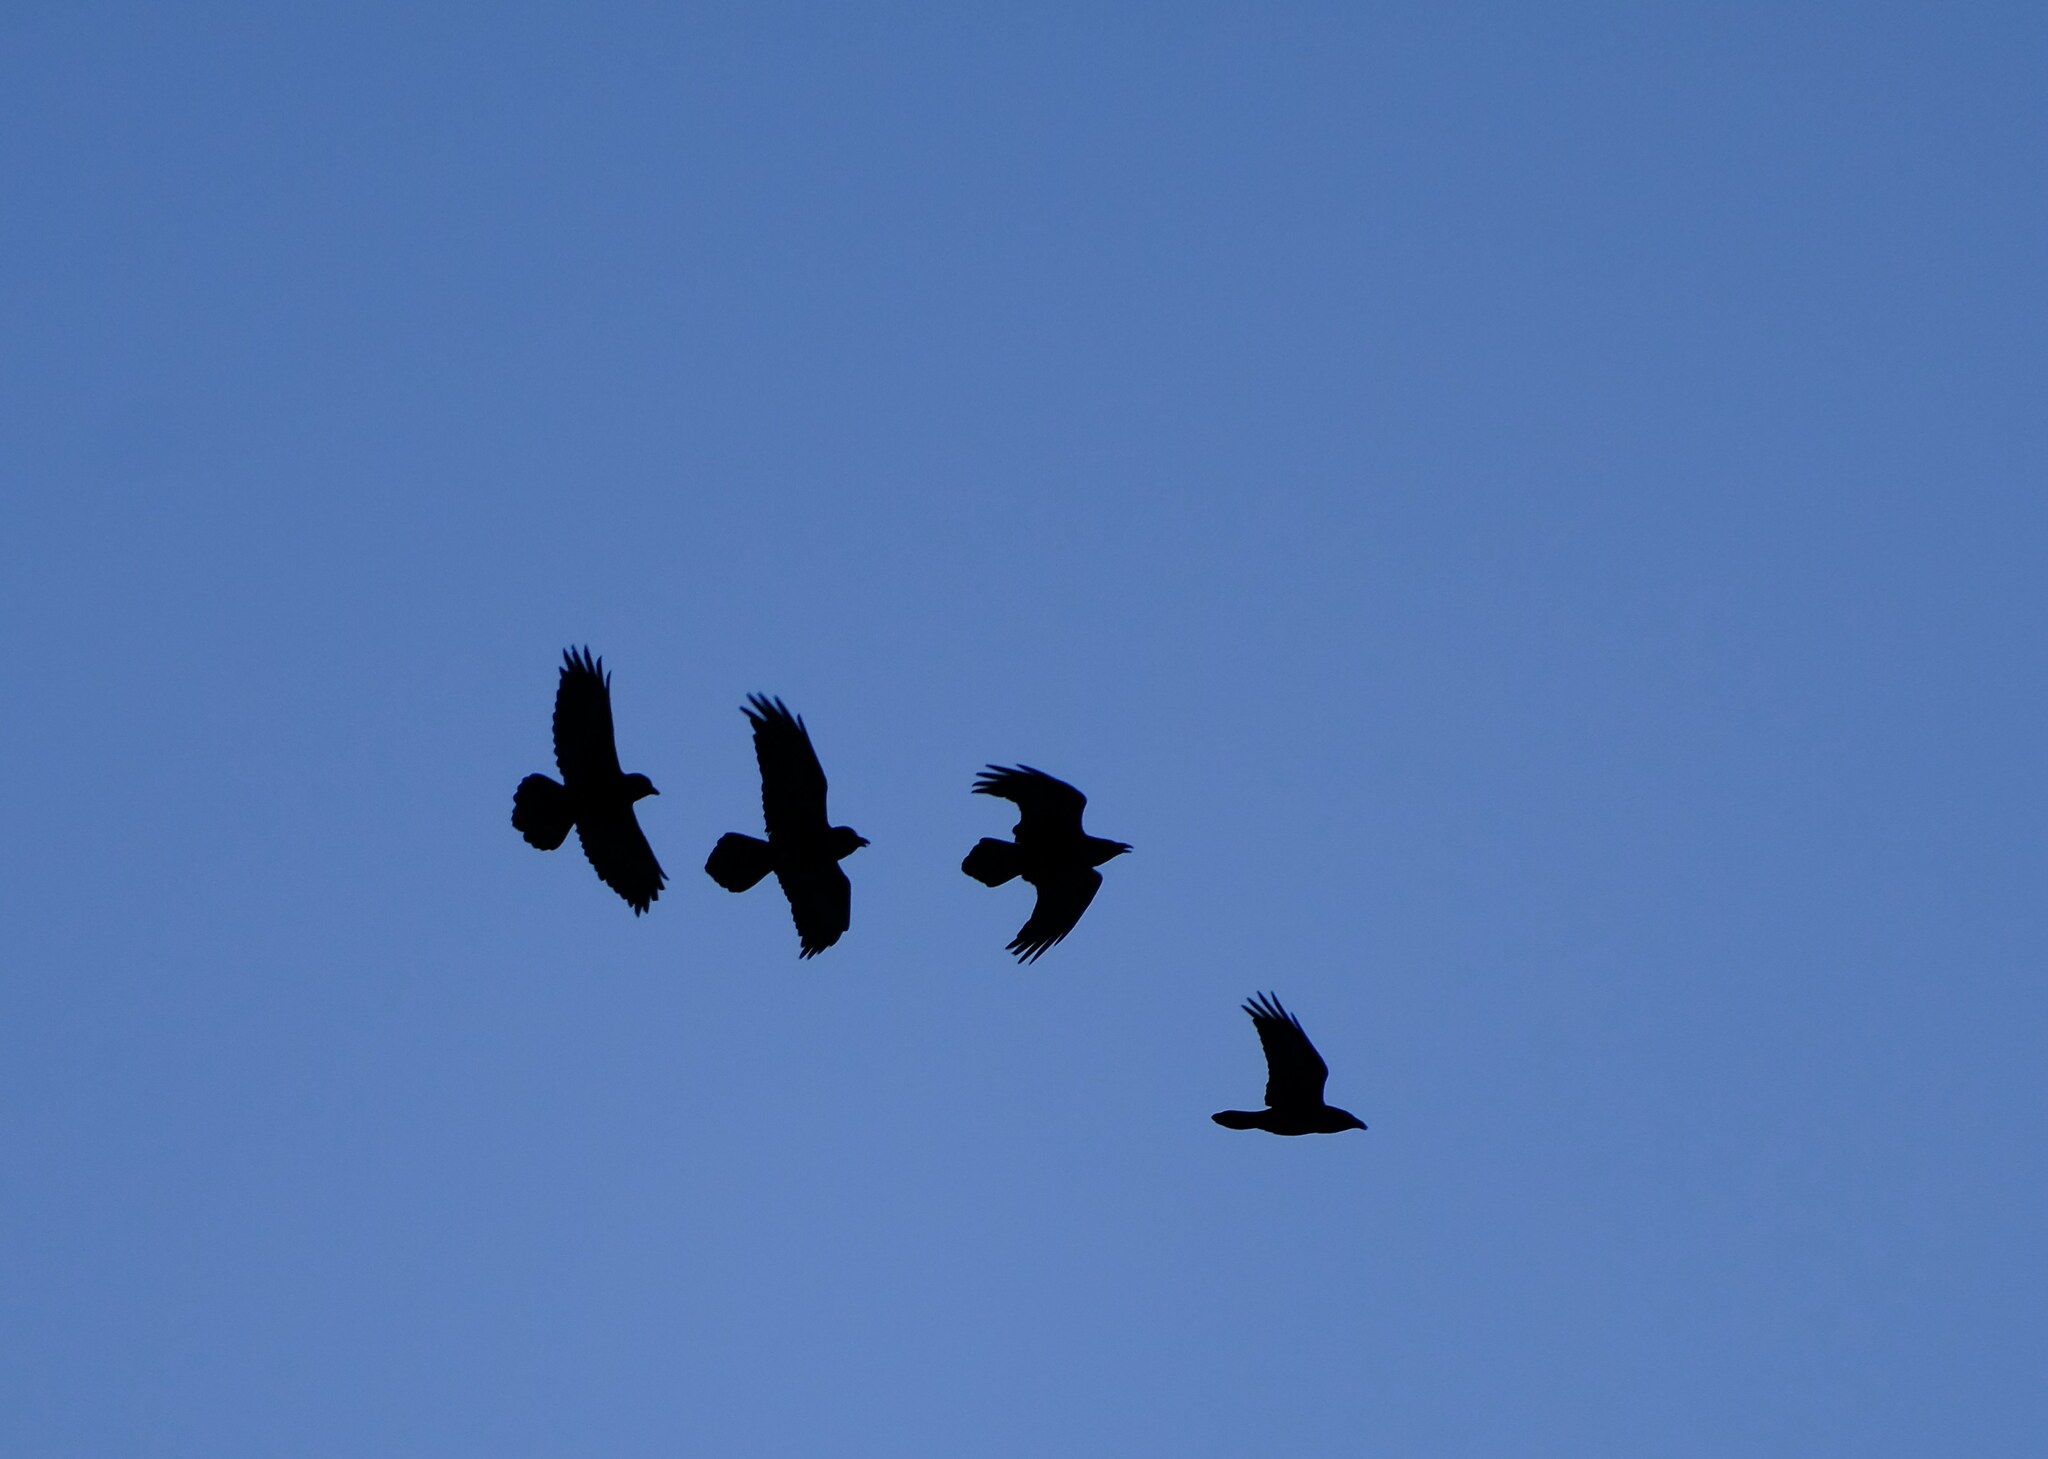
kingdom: Animalia
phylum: Chordata
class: Aves
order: Passeriformes
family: Corvidae
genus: Corvus
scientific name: Corvus corax
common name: Common raven
